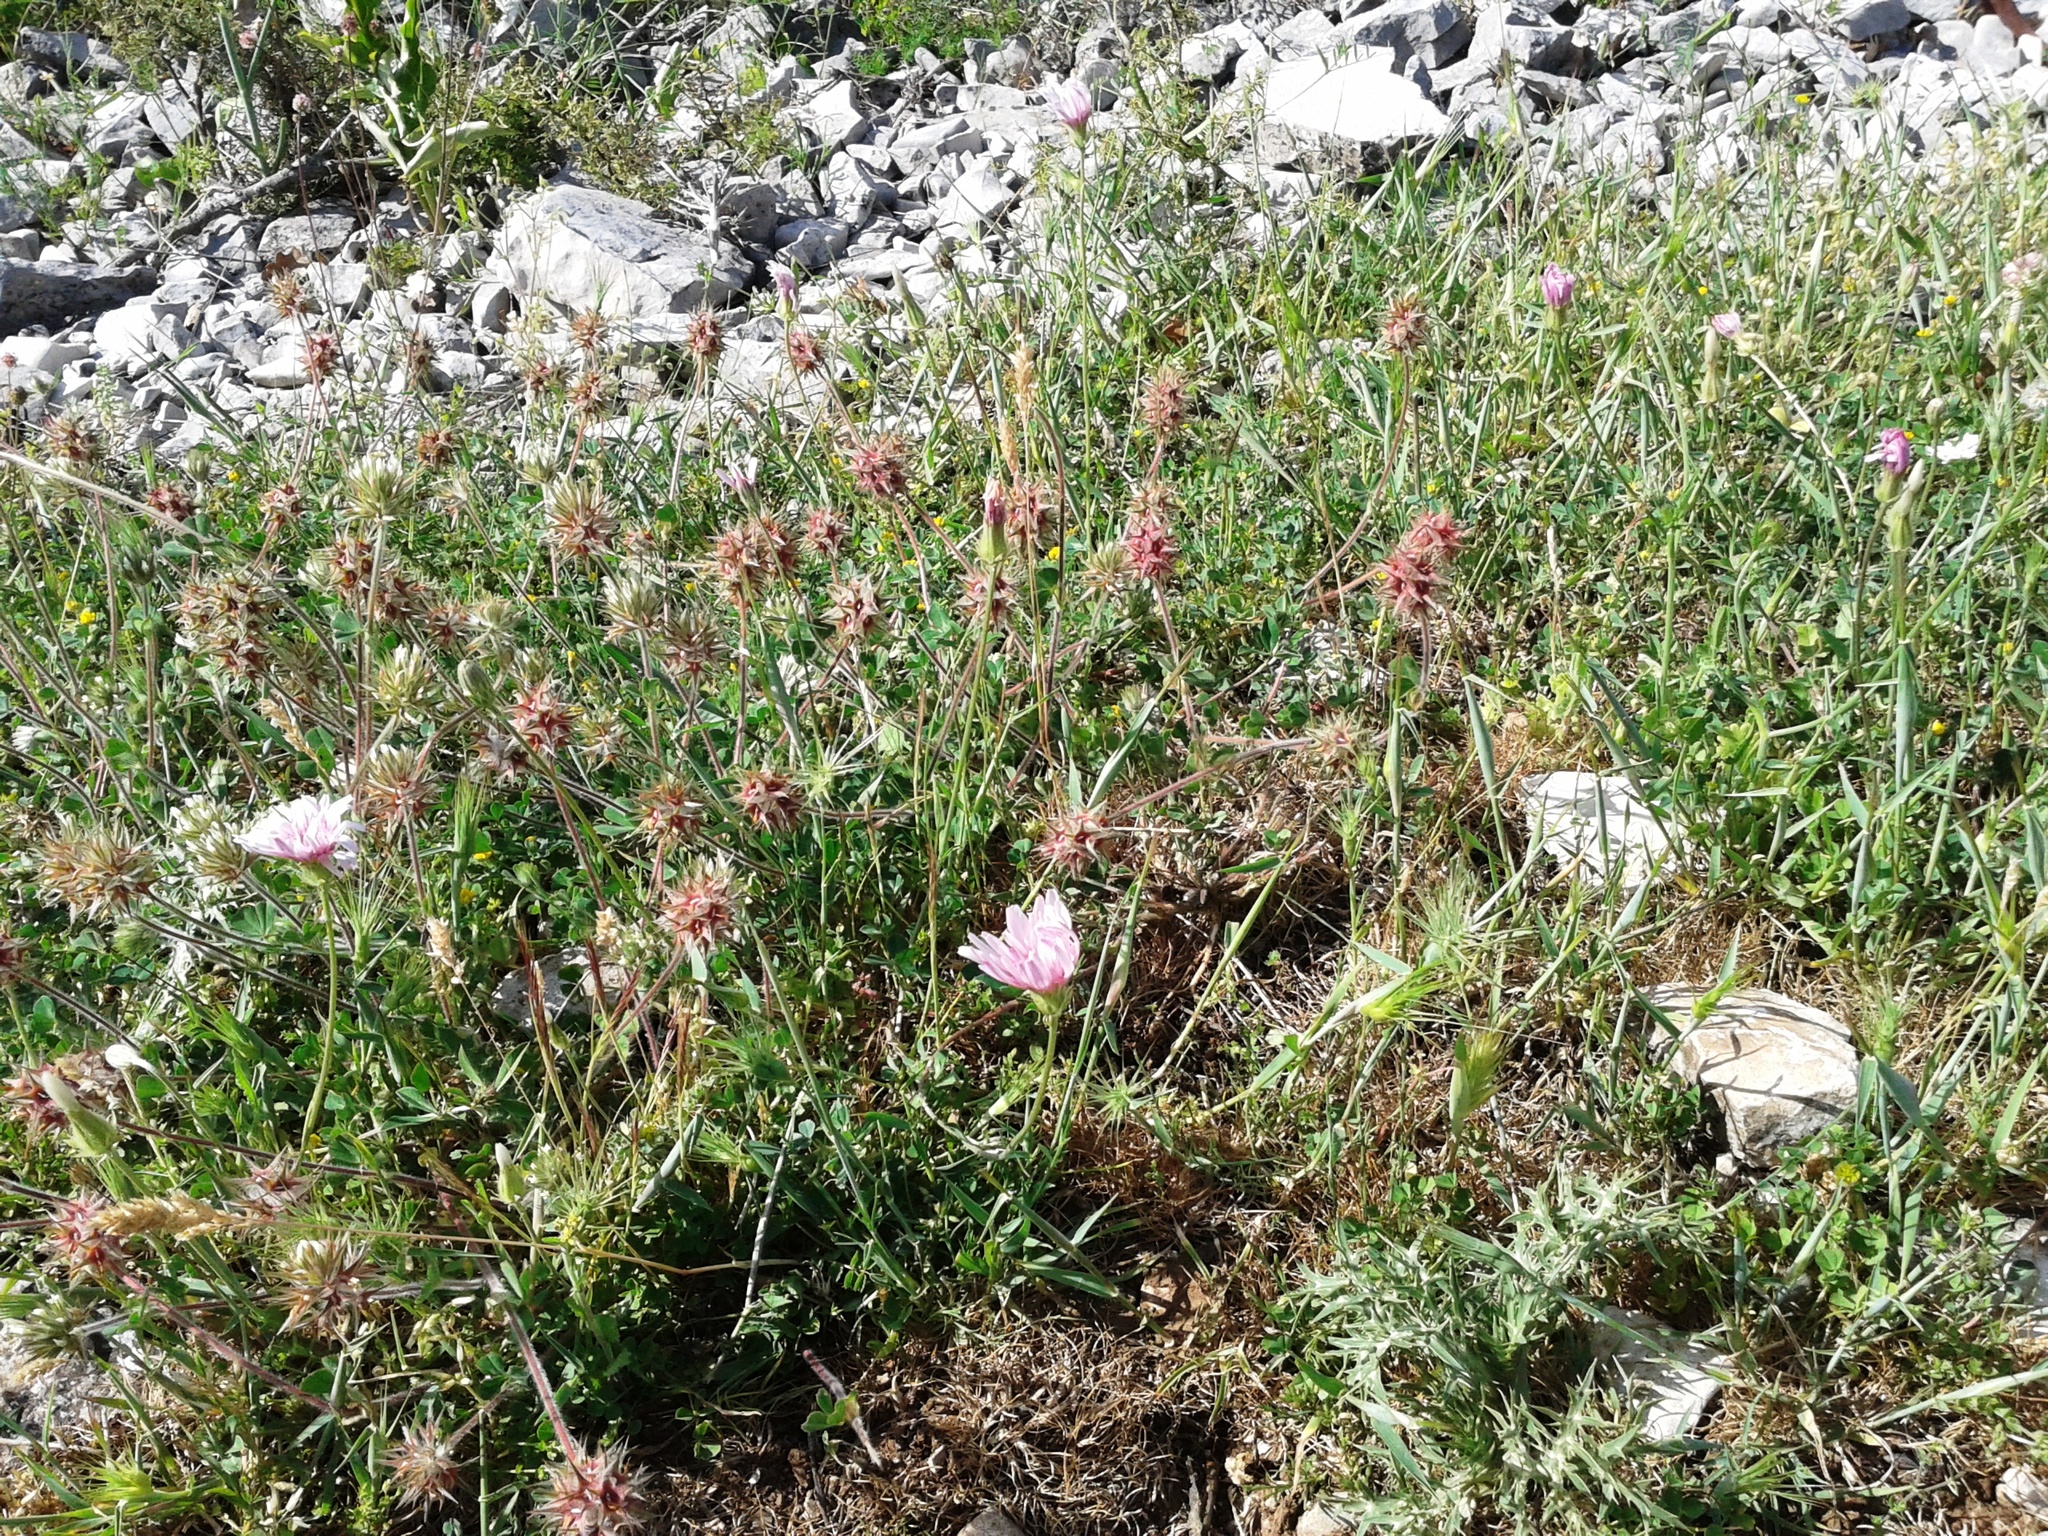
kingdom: Plantae
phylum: Tracheophyta
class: Magnoliopsida
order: Fabales
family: Fabaceae
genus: Trifolium
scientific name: Trifolium stellatum
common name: Starry clover
